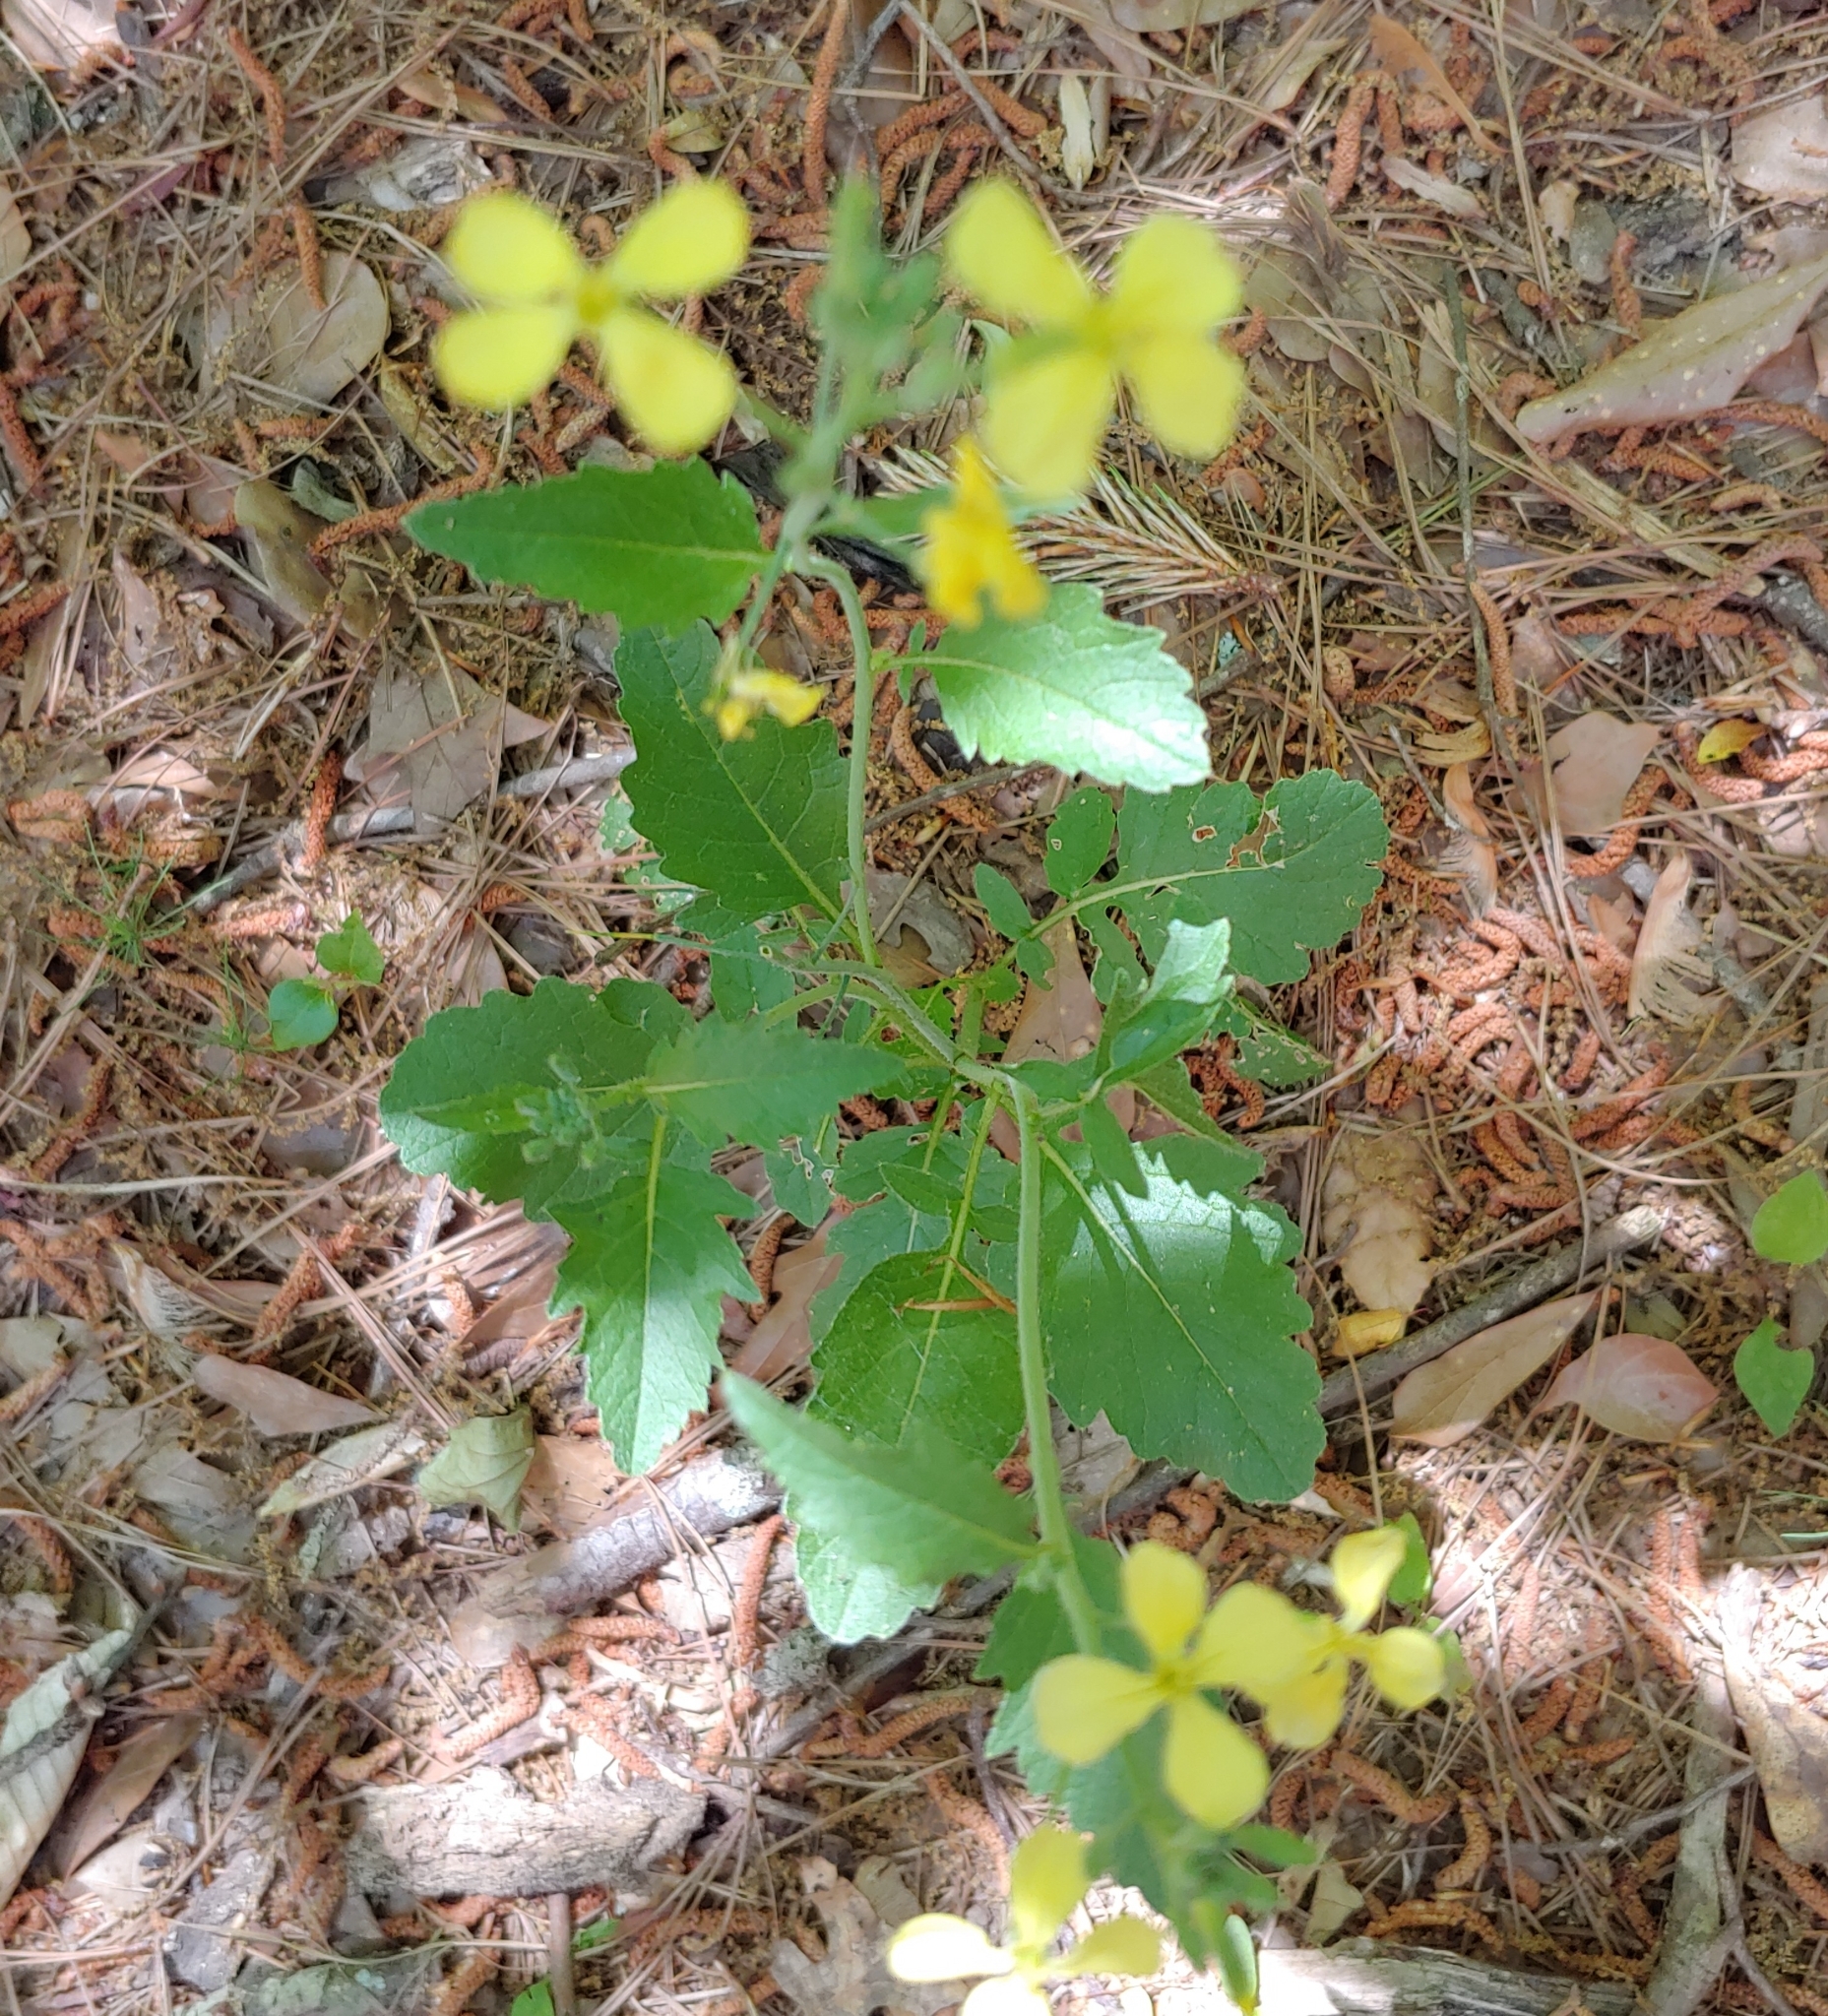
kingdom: Plantae
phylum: Tracheophyta
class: Magnoliopsida
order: Brassicales
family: Brassicaceae
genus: Raphanus
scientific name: Raphanus raphanistrum
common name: Wild radish
